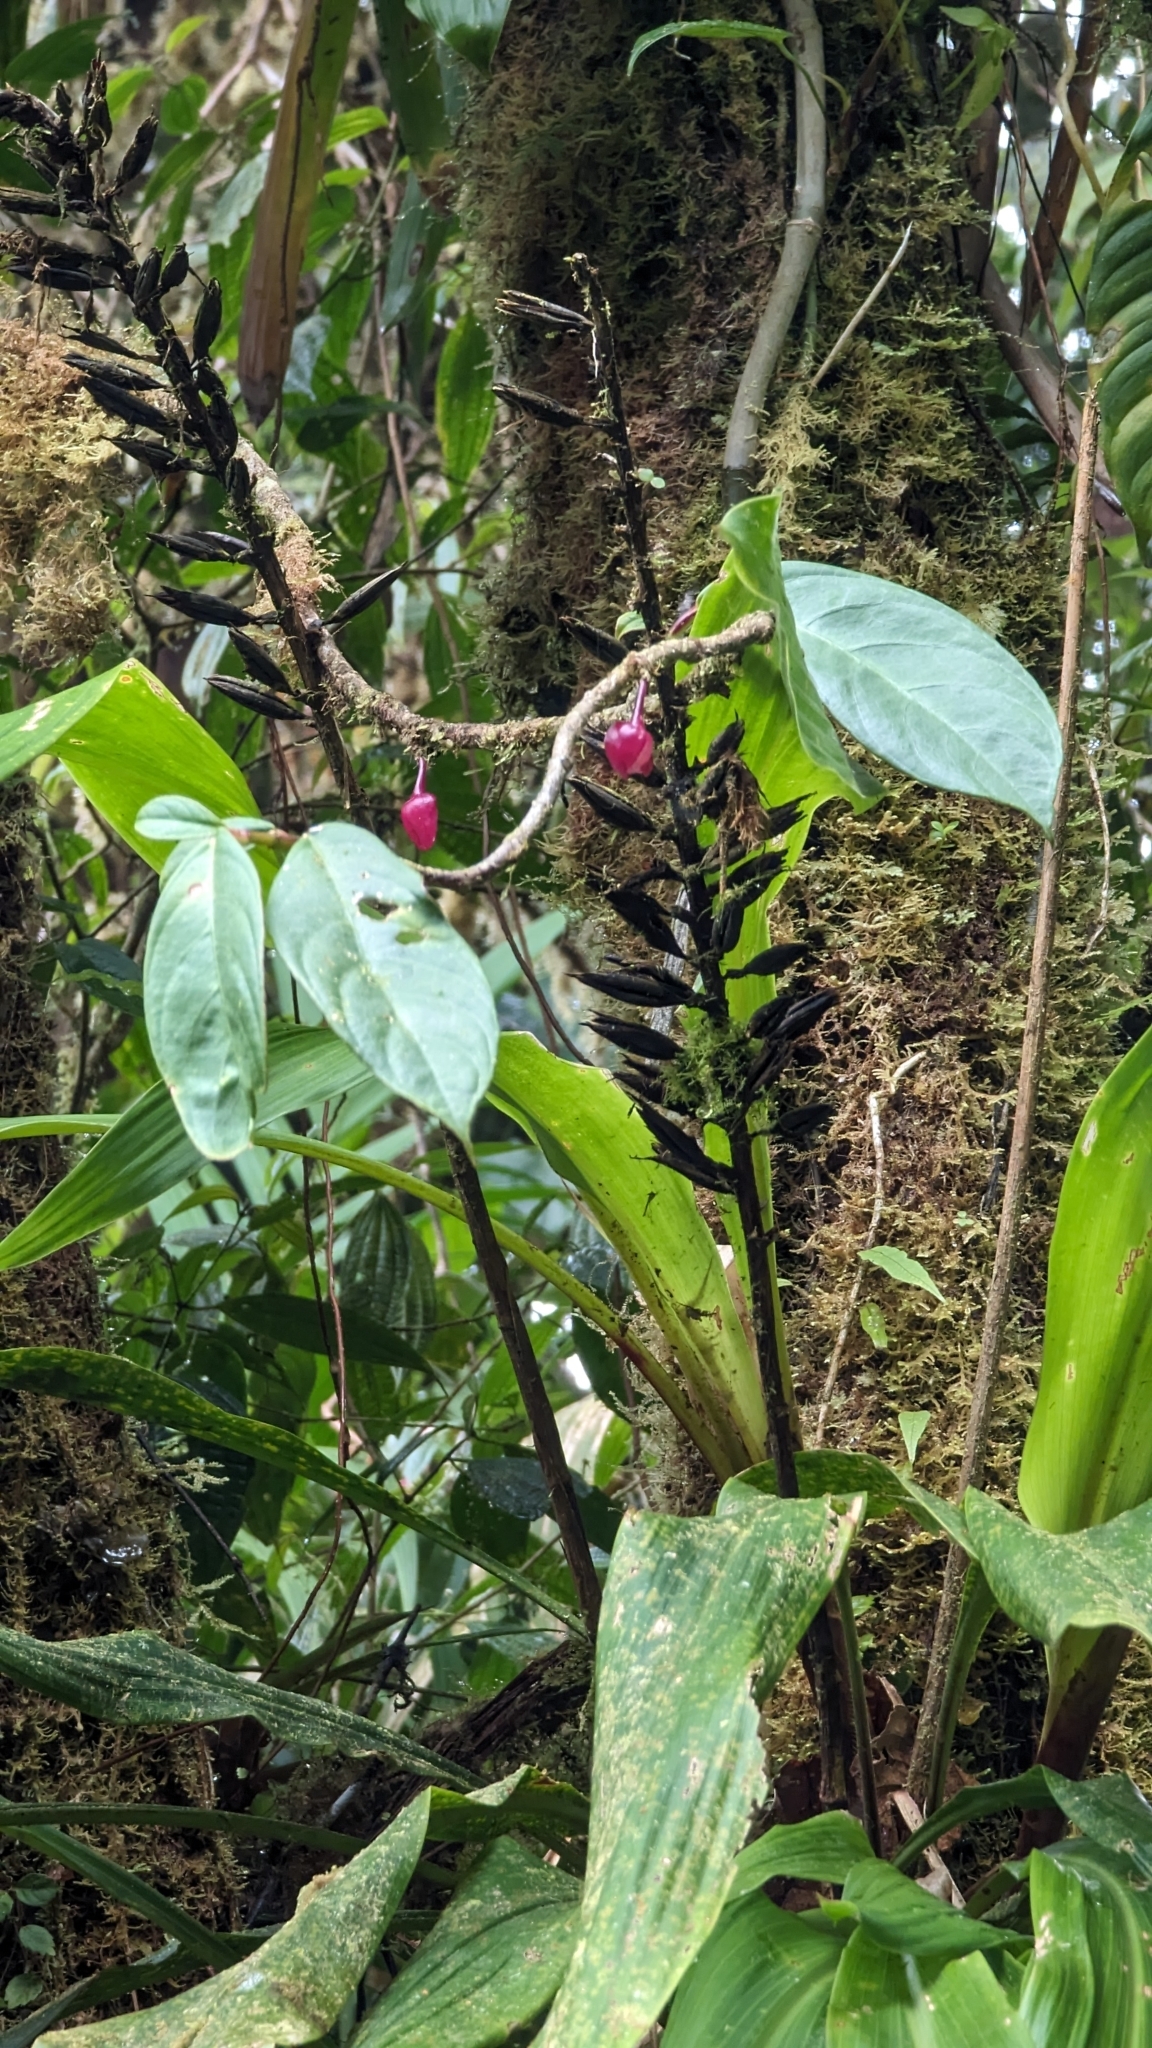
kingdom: Plantae
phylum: Tracheophyta
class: Magnoliopsida
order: Lamiales
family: Gesneriaceae
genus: Drymonia
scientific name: Drymonia conchocalyx
